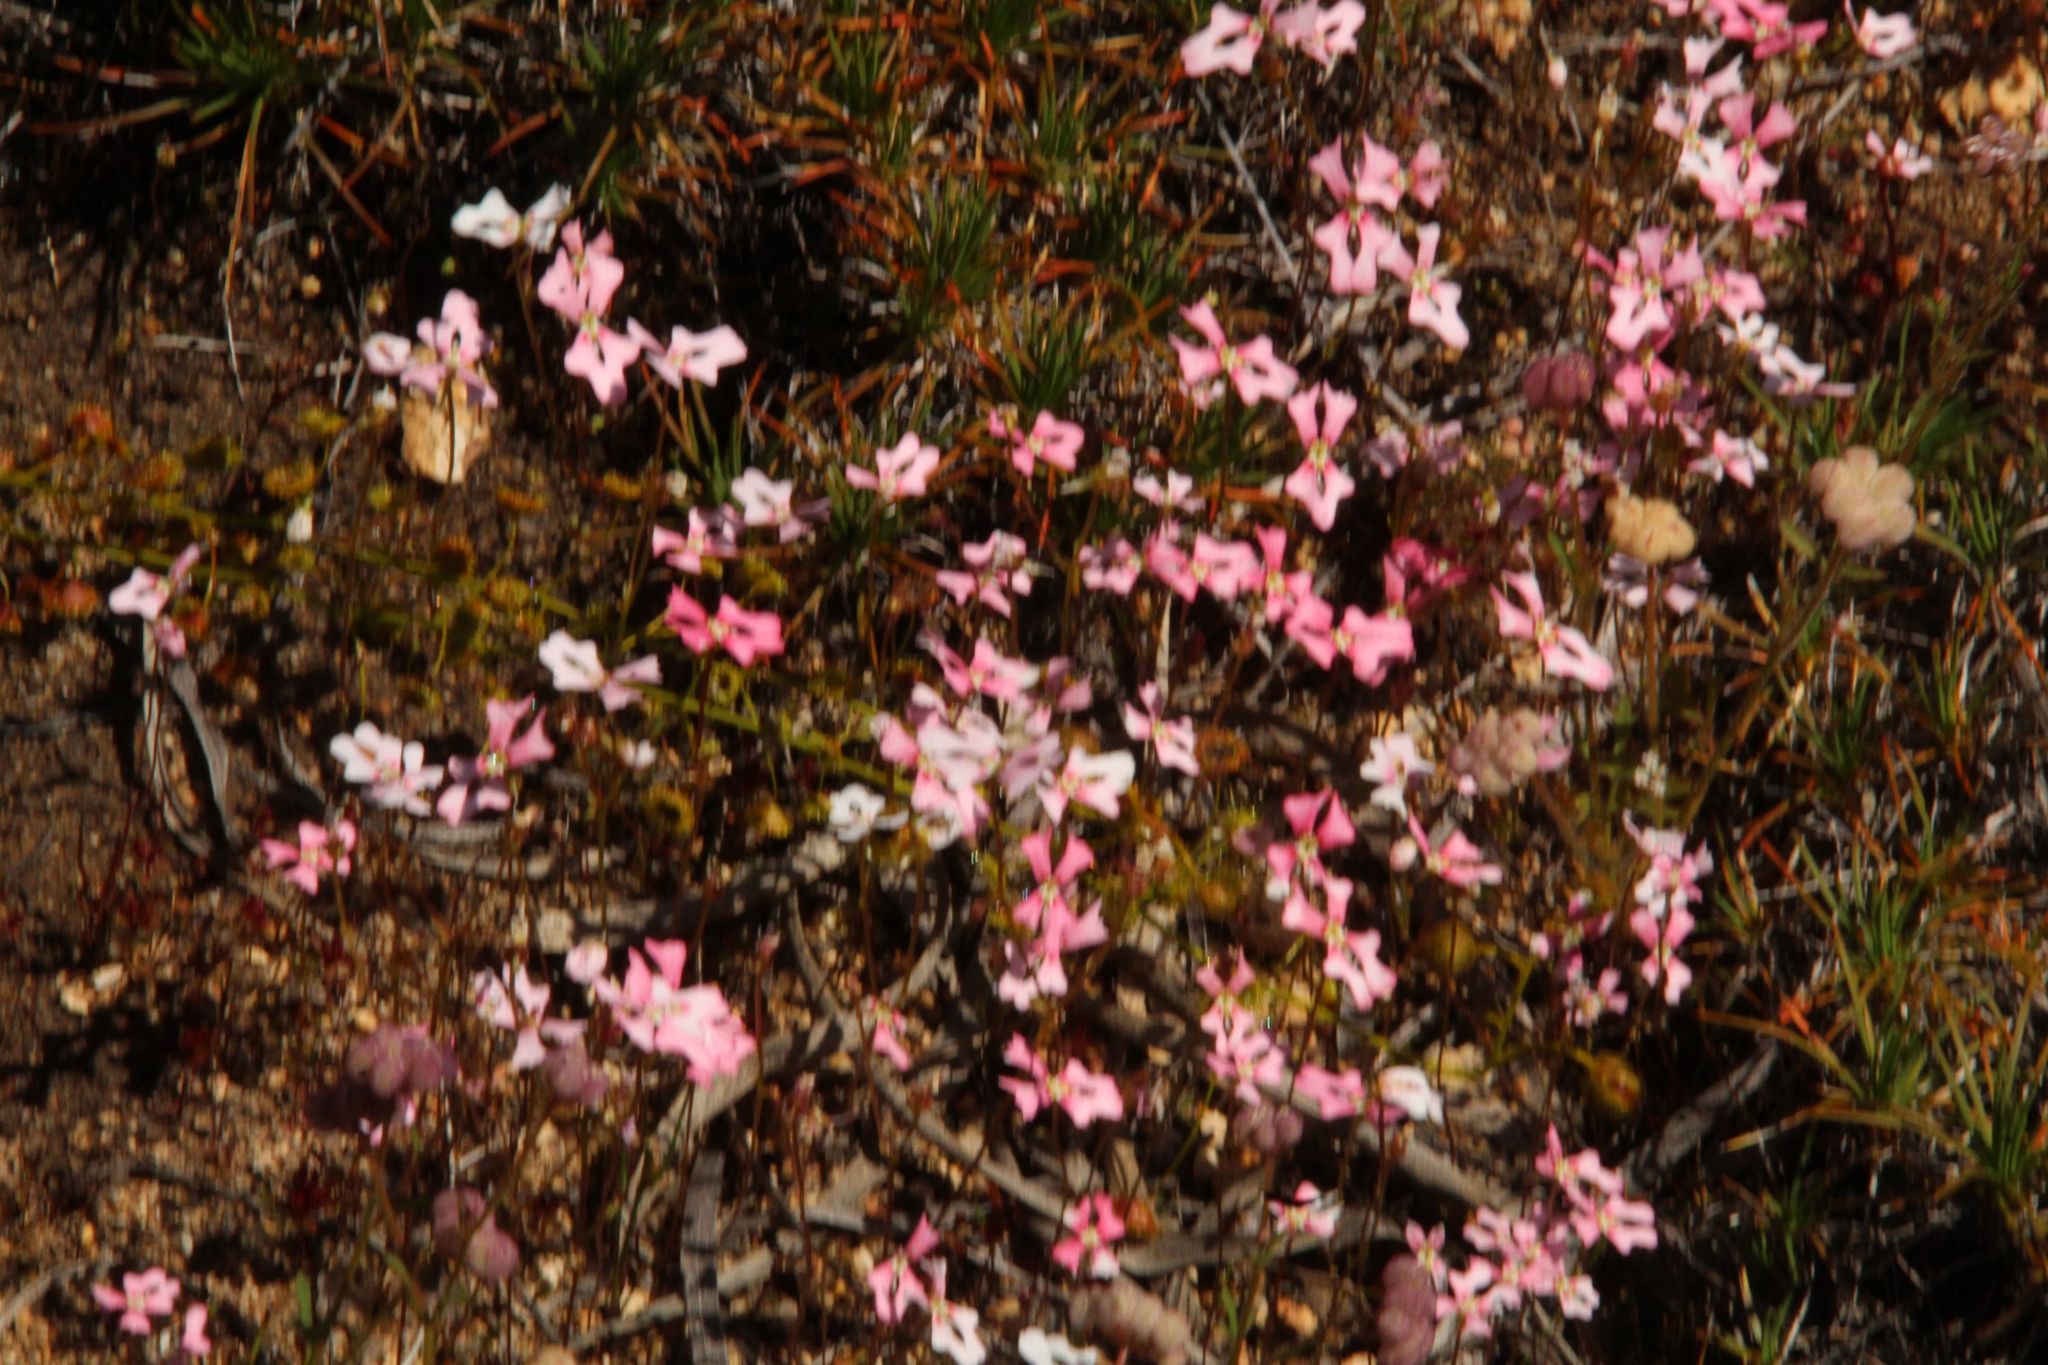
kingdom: Plantae
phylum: Tracheophyta
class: Magnoliopsida
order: Asterales
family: Stylidiaceae
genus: Stylidium
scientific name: Stylidium ecorne
